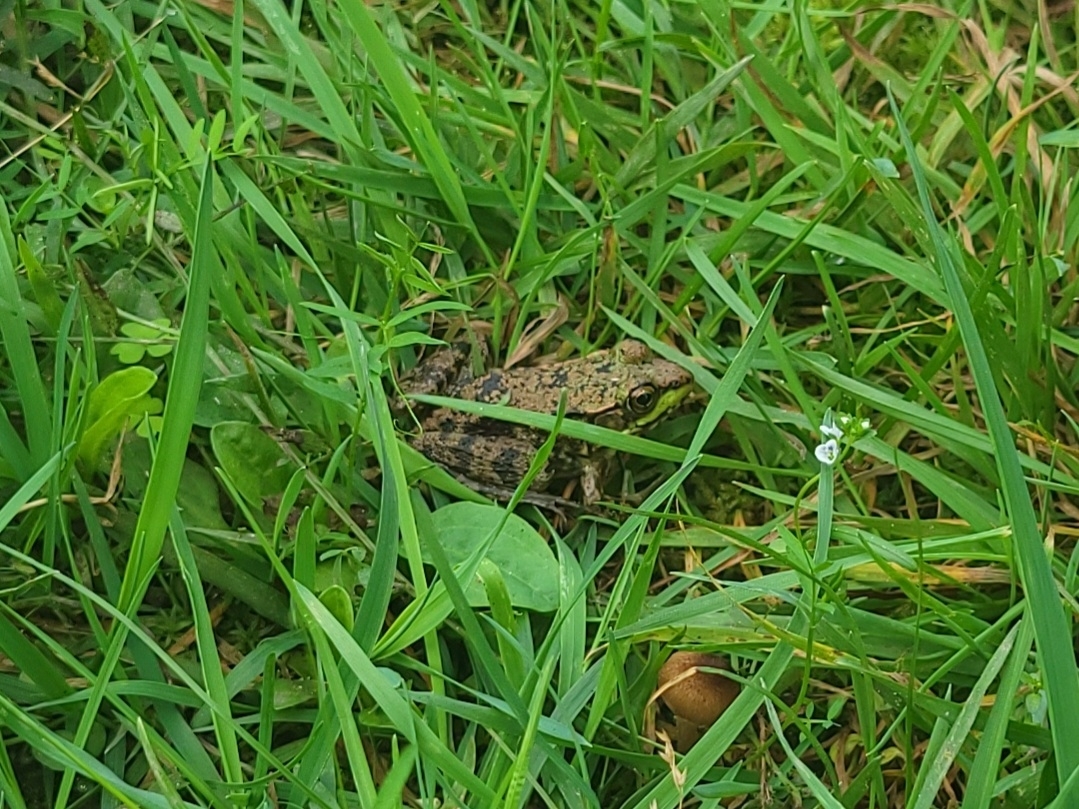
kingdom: Animalia
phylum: Chordata
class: Amphibia
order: Anura
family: Ranidae
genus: Lithobates
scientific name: Lithobates clamitans
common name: Green frog
